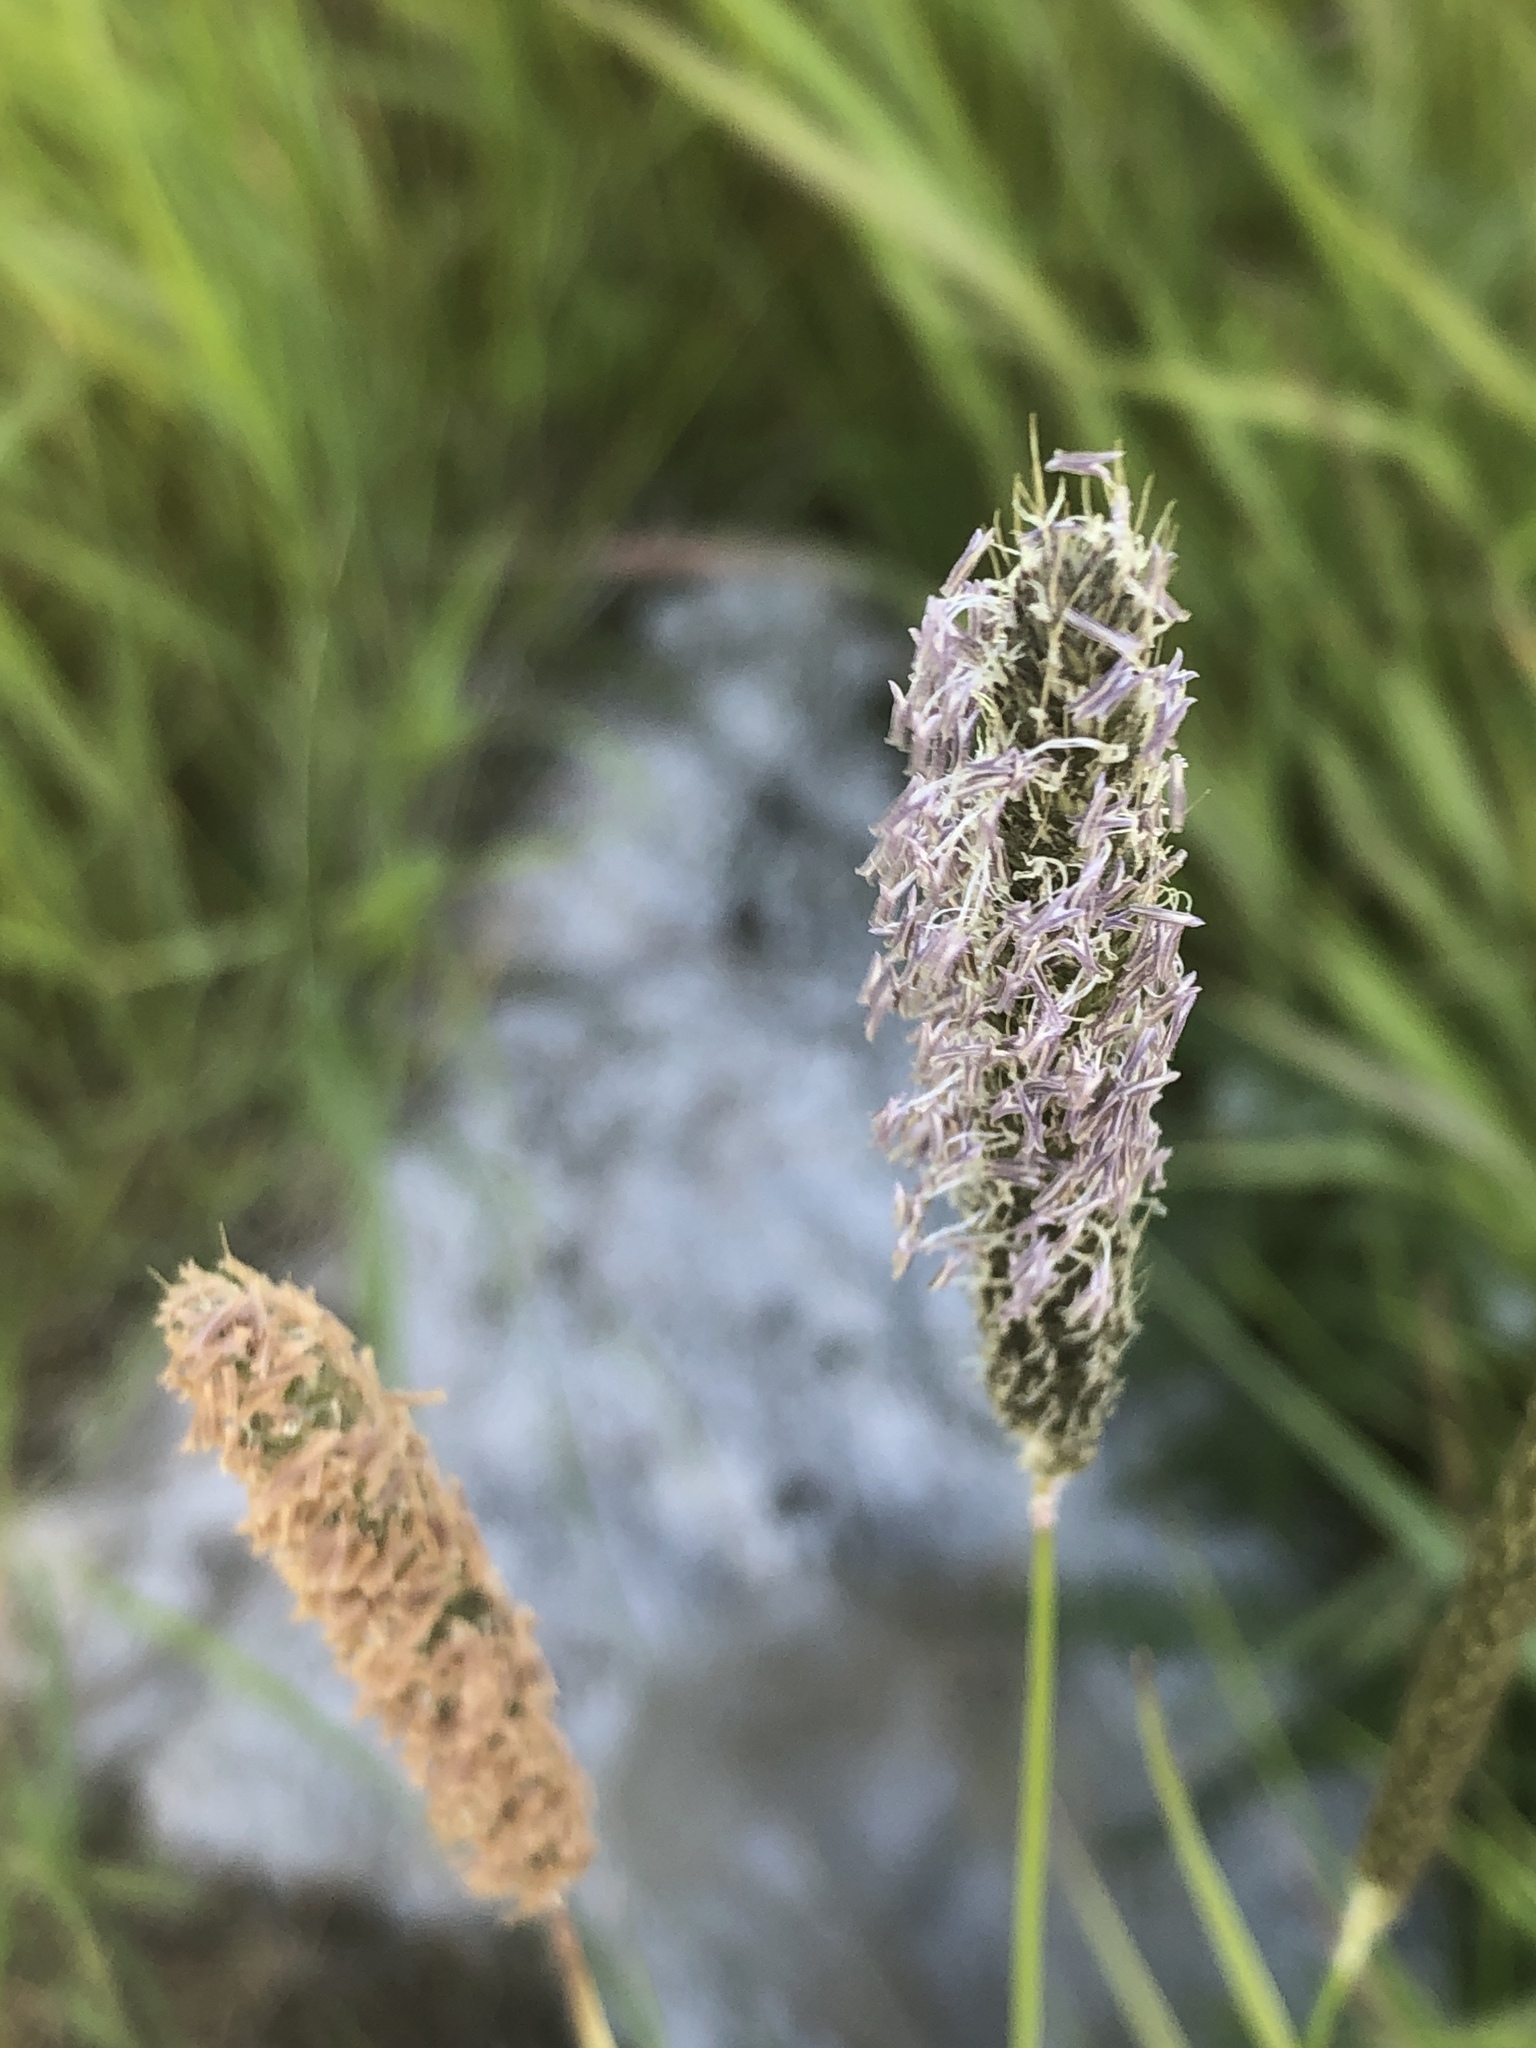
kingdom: Plantae
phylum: Tracheophyta
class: Liliopsida
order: Poales
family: Poaceae
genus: Alopecurus
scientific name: Alopecurus pratensis
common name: Meadow foxtail
